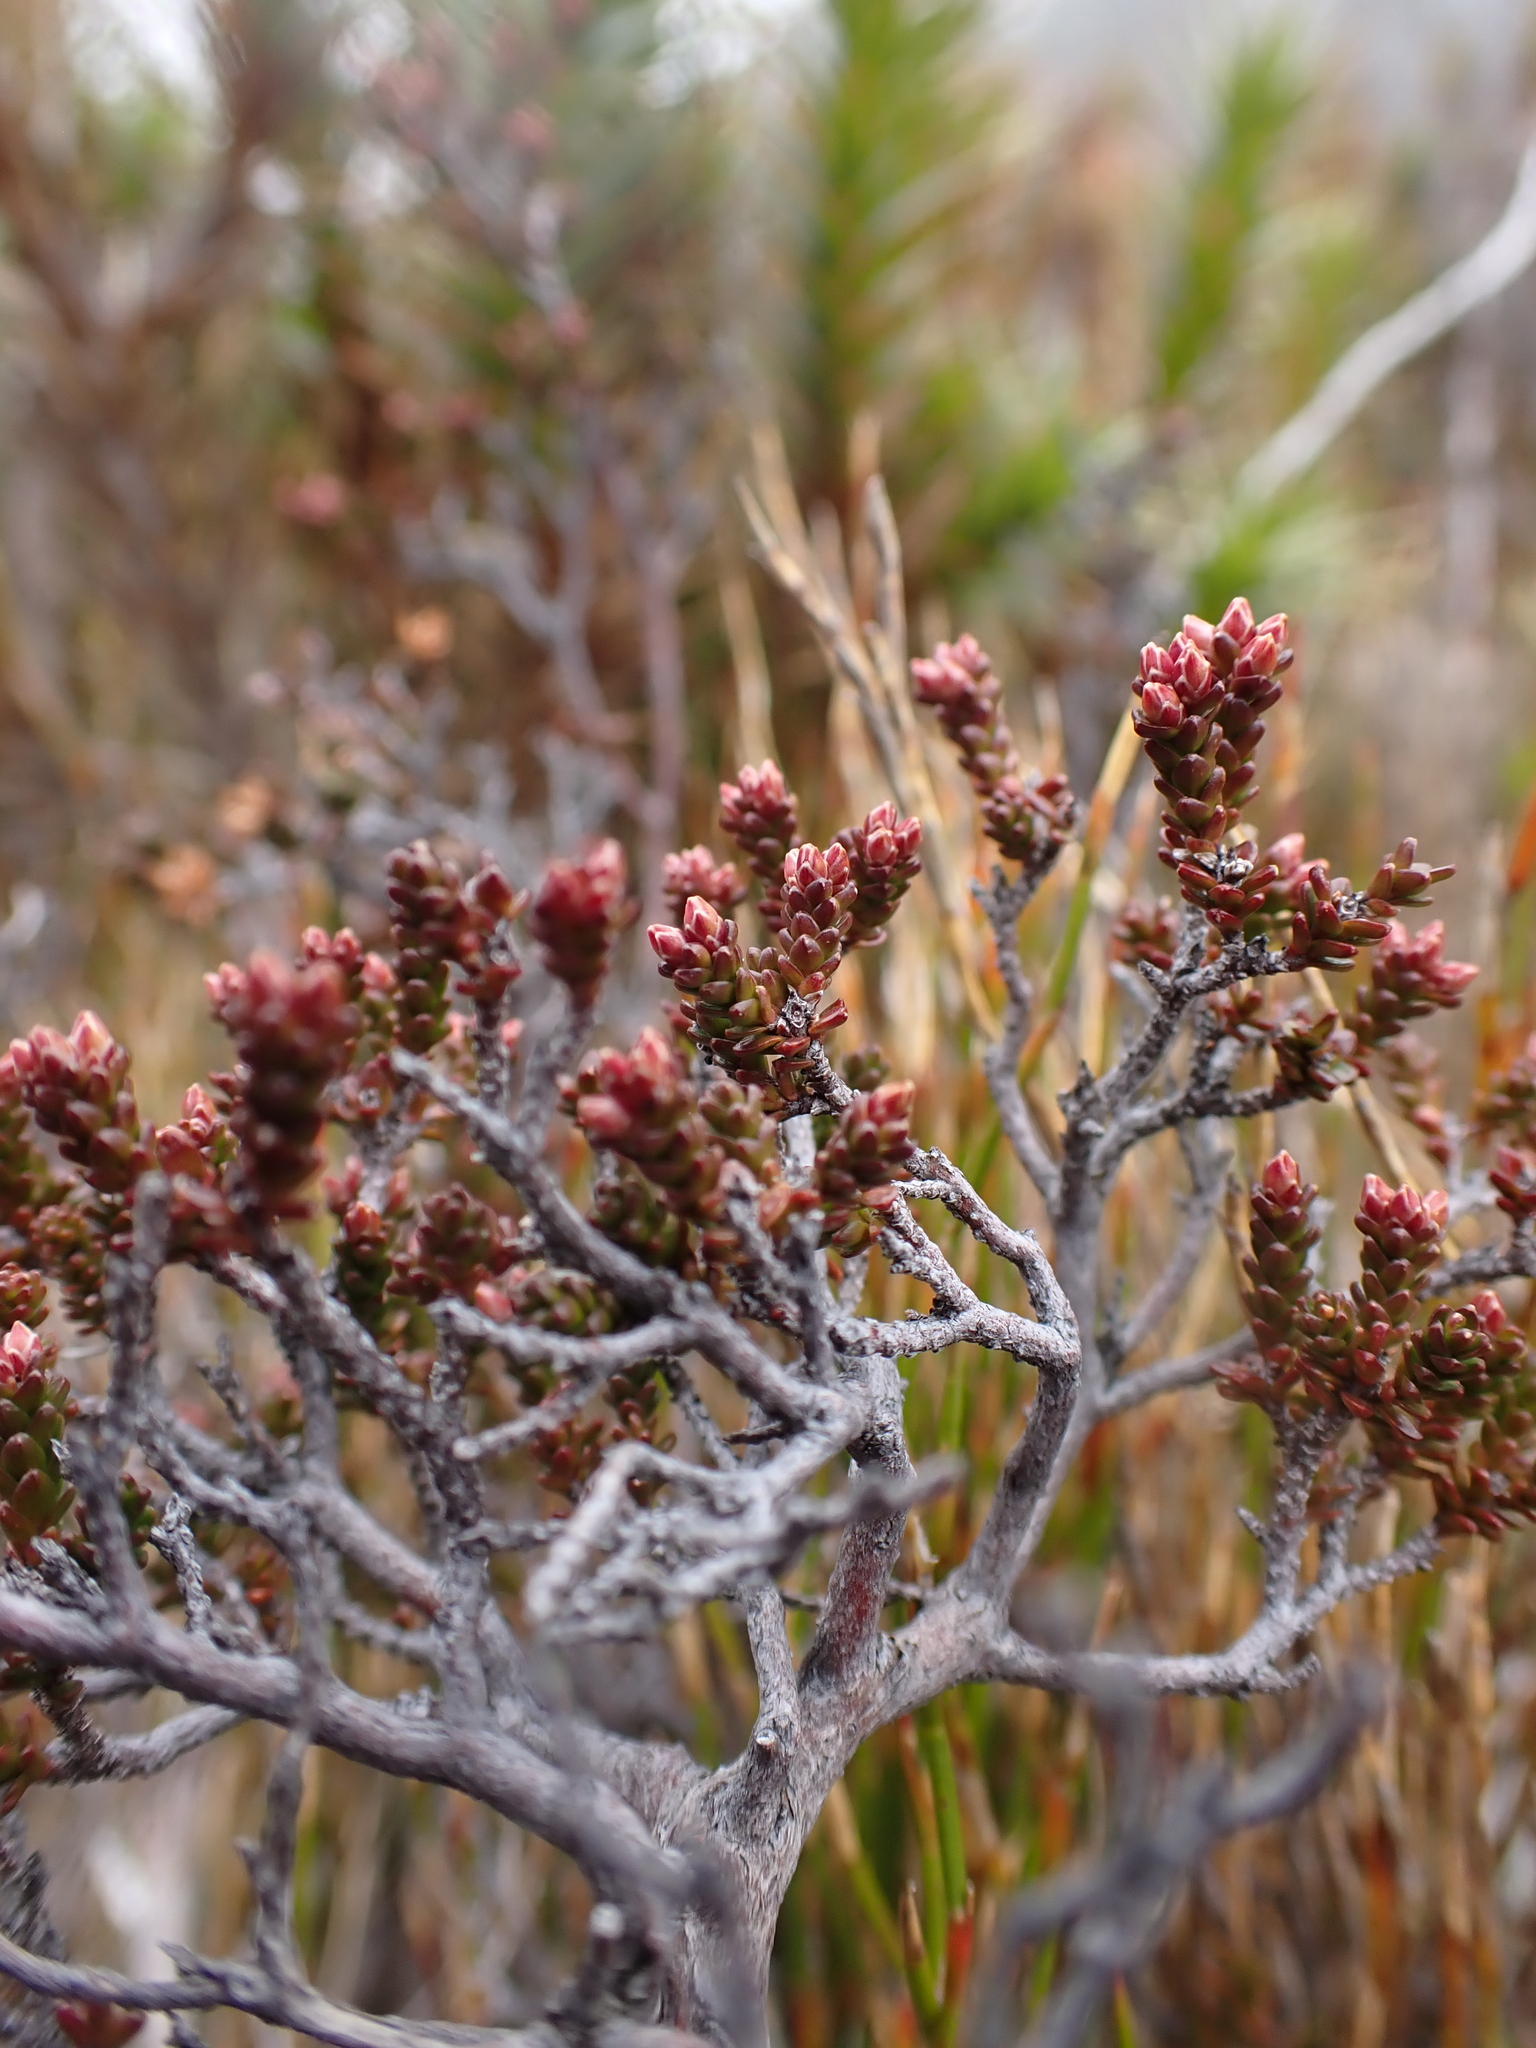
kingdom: Plantae
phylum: Tracheophyta
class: Magnoliopsida
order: Ericales
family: Ericaceae
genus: Epacris
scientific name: Epacris petrophila
